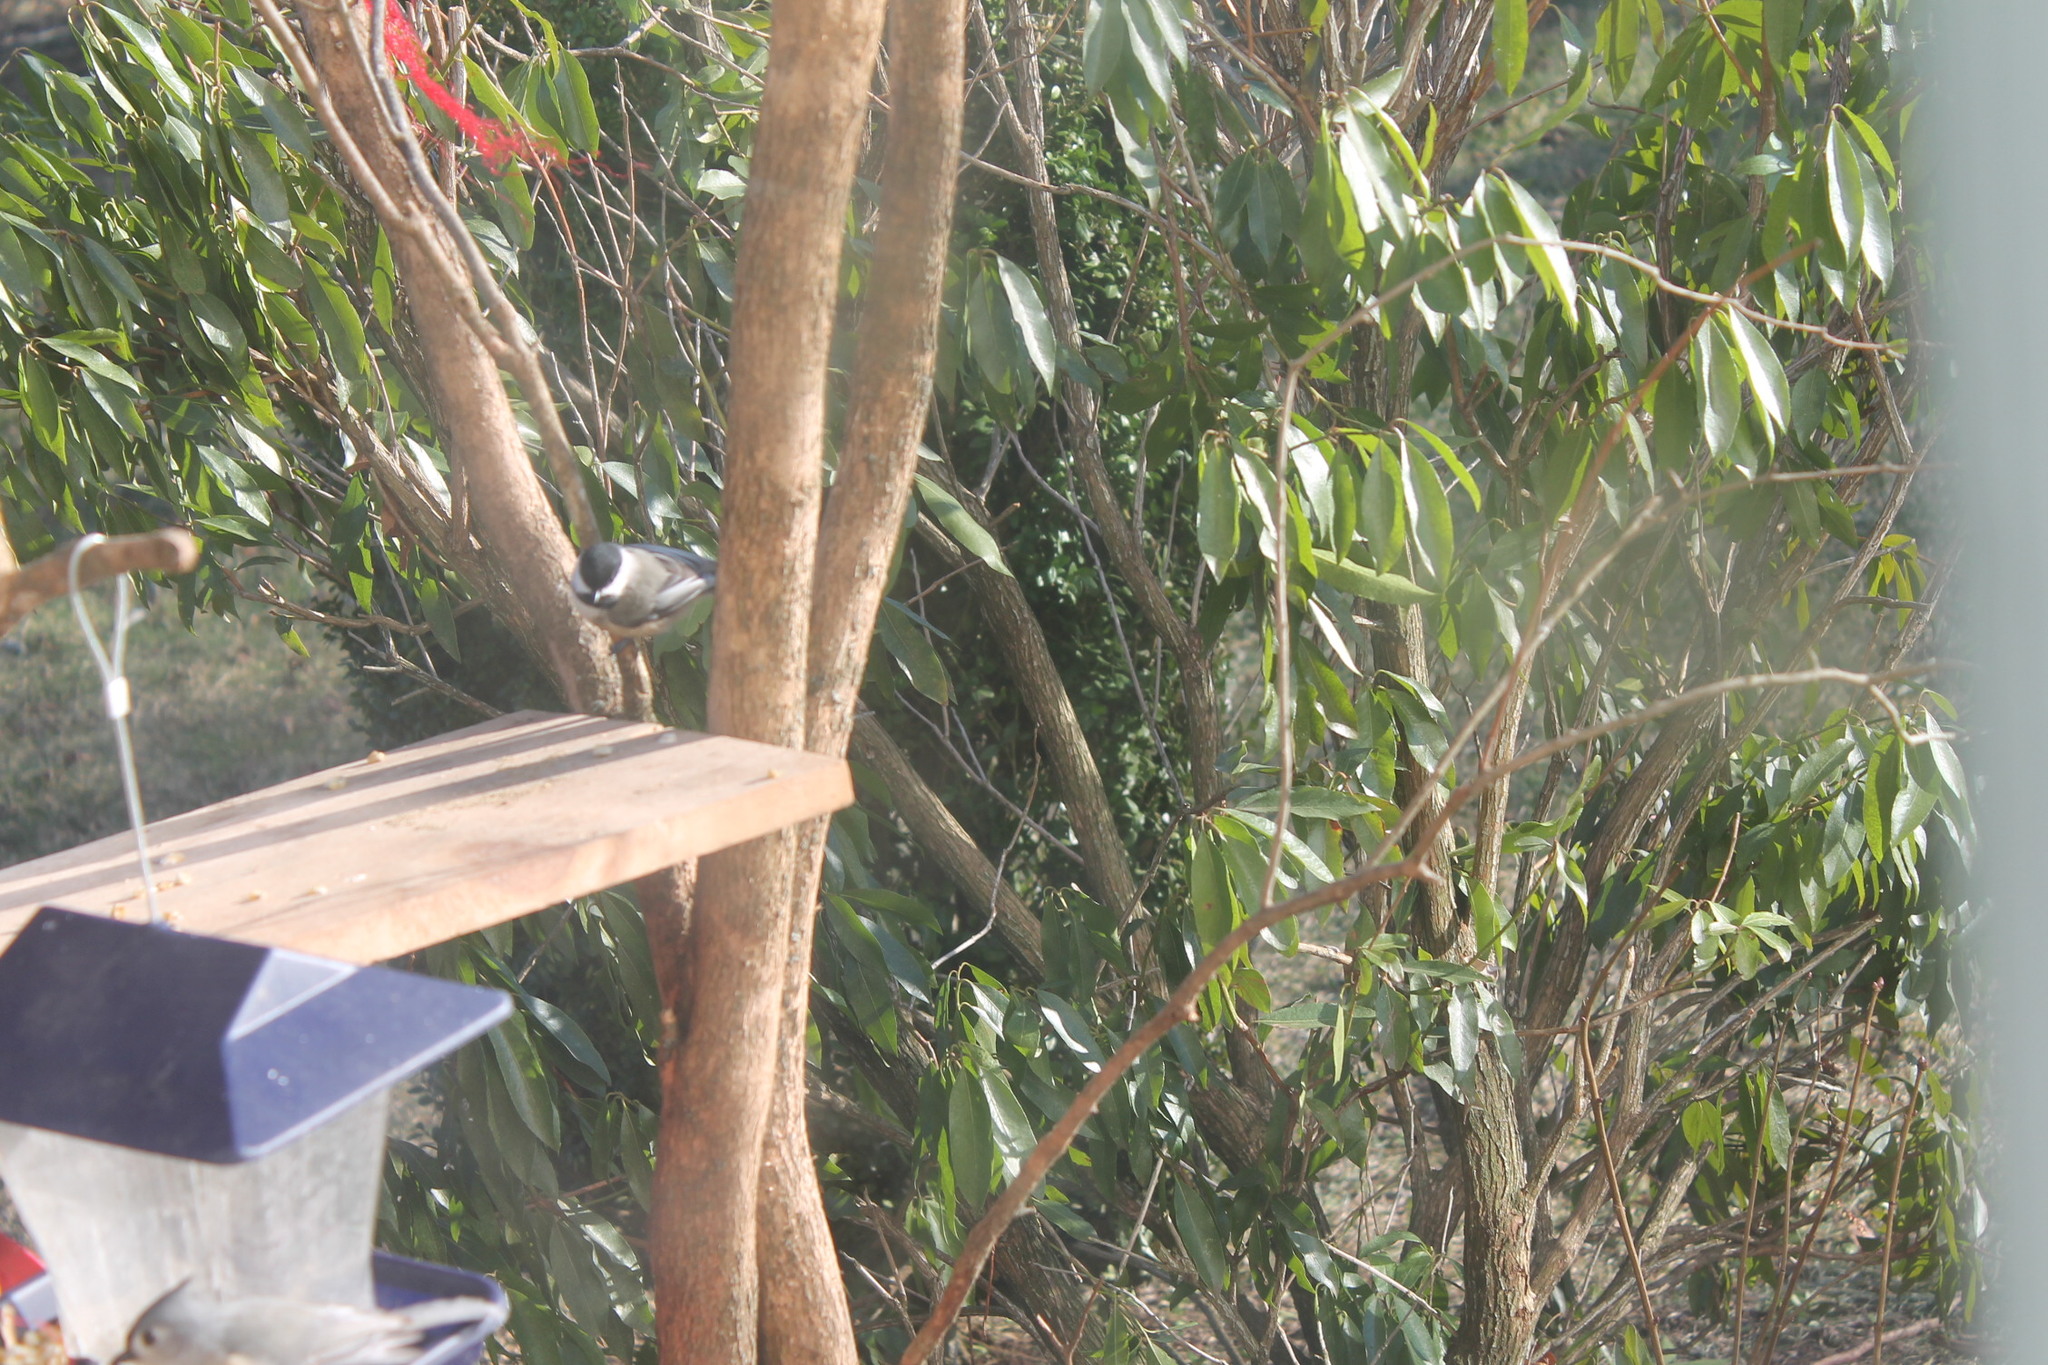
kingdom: Animalia
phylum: Chordata
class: Aves
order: Passeriformes
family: Paridae
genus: Poecile
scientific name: Poecile atricapillus
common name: Black-capped chickadee
